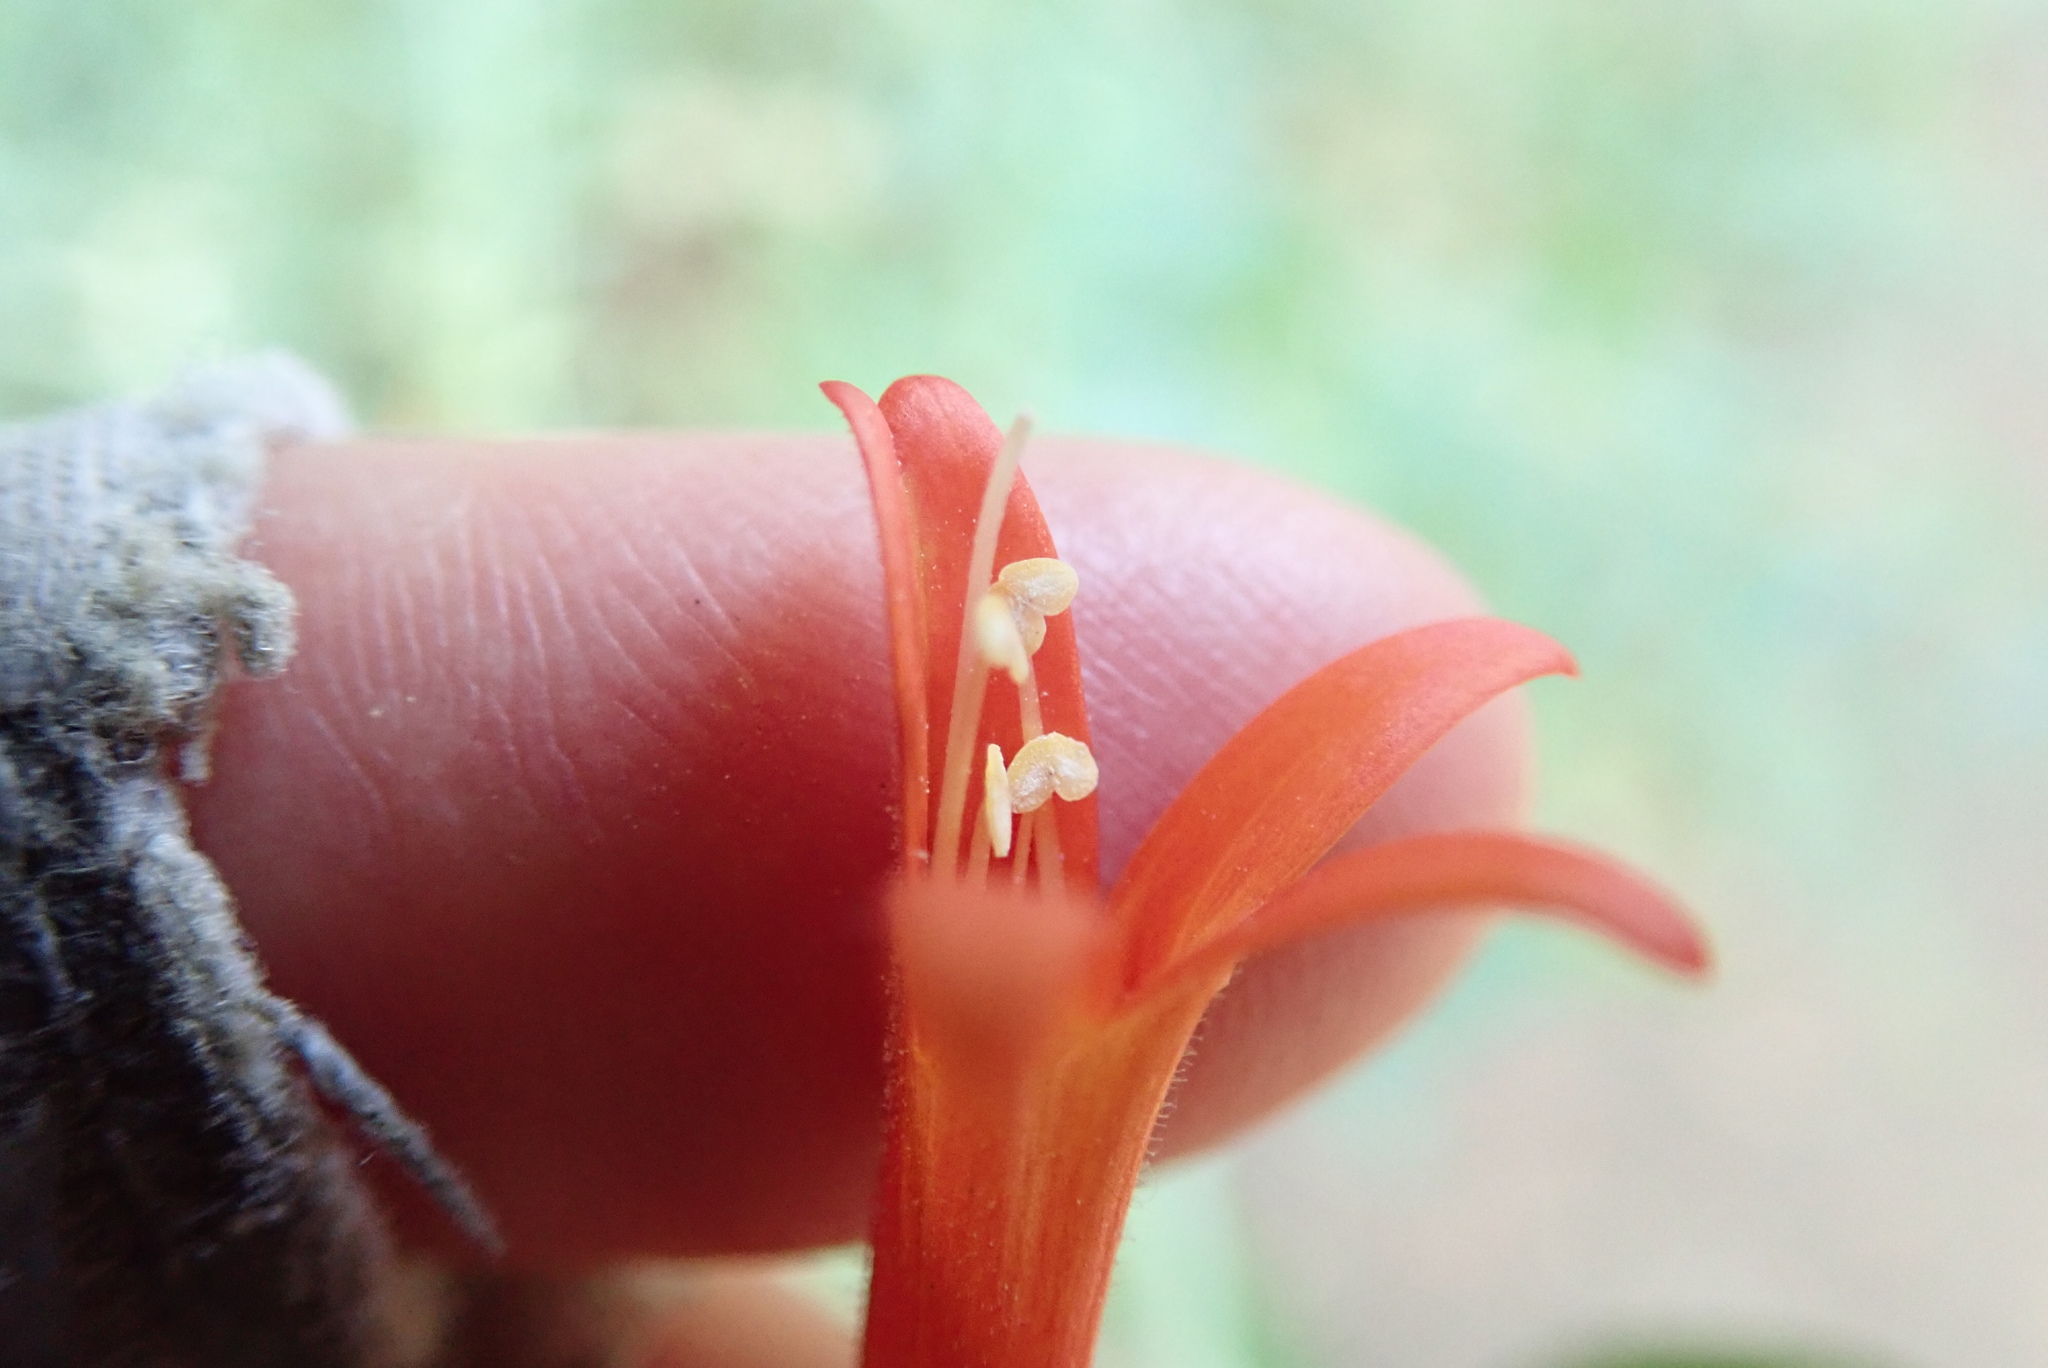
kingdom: Plantae
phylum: Tracheophyta
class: Magnoliopsida
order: Lamiales
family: Plantaginaceae
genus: Keckiella
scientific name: Keckiella ternata
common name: Scarlet keckiella
